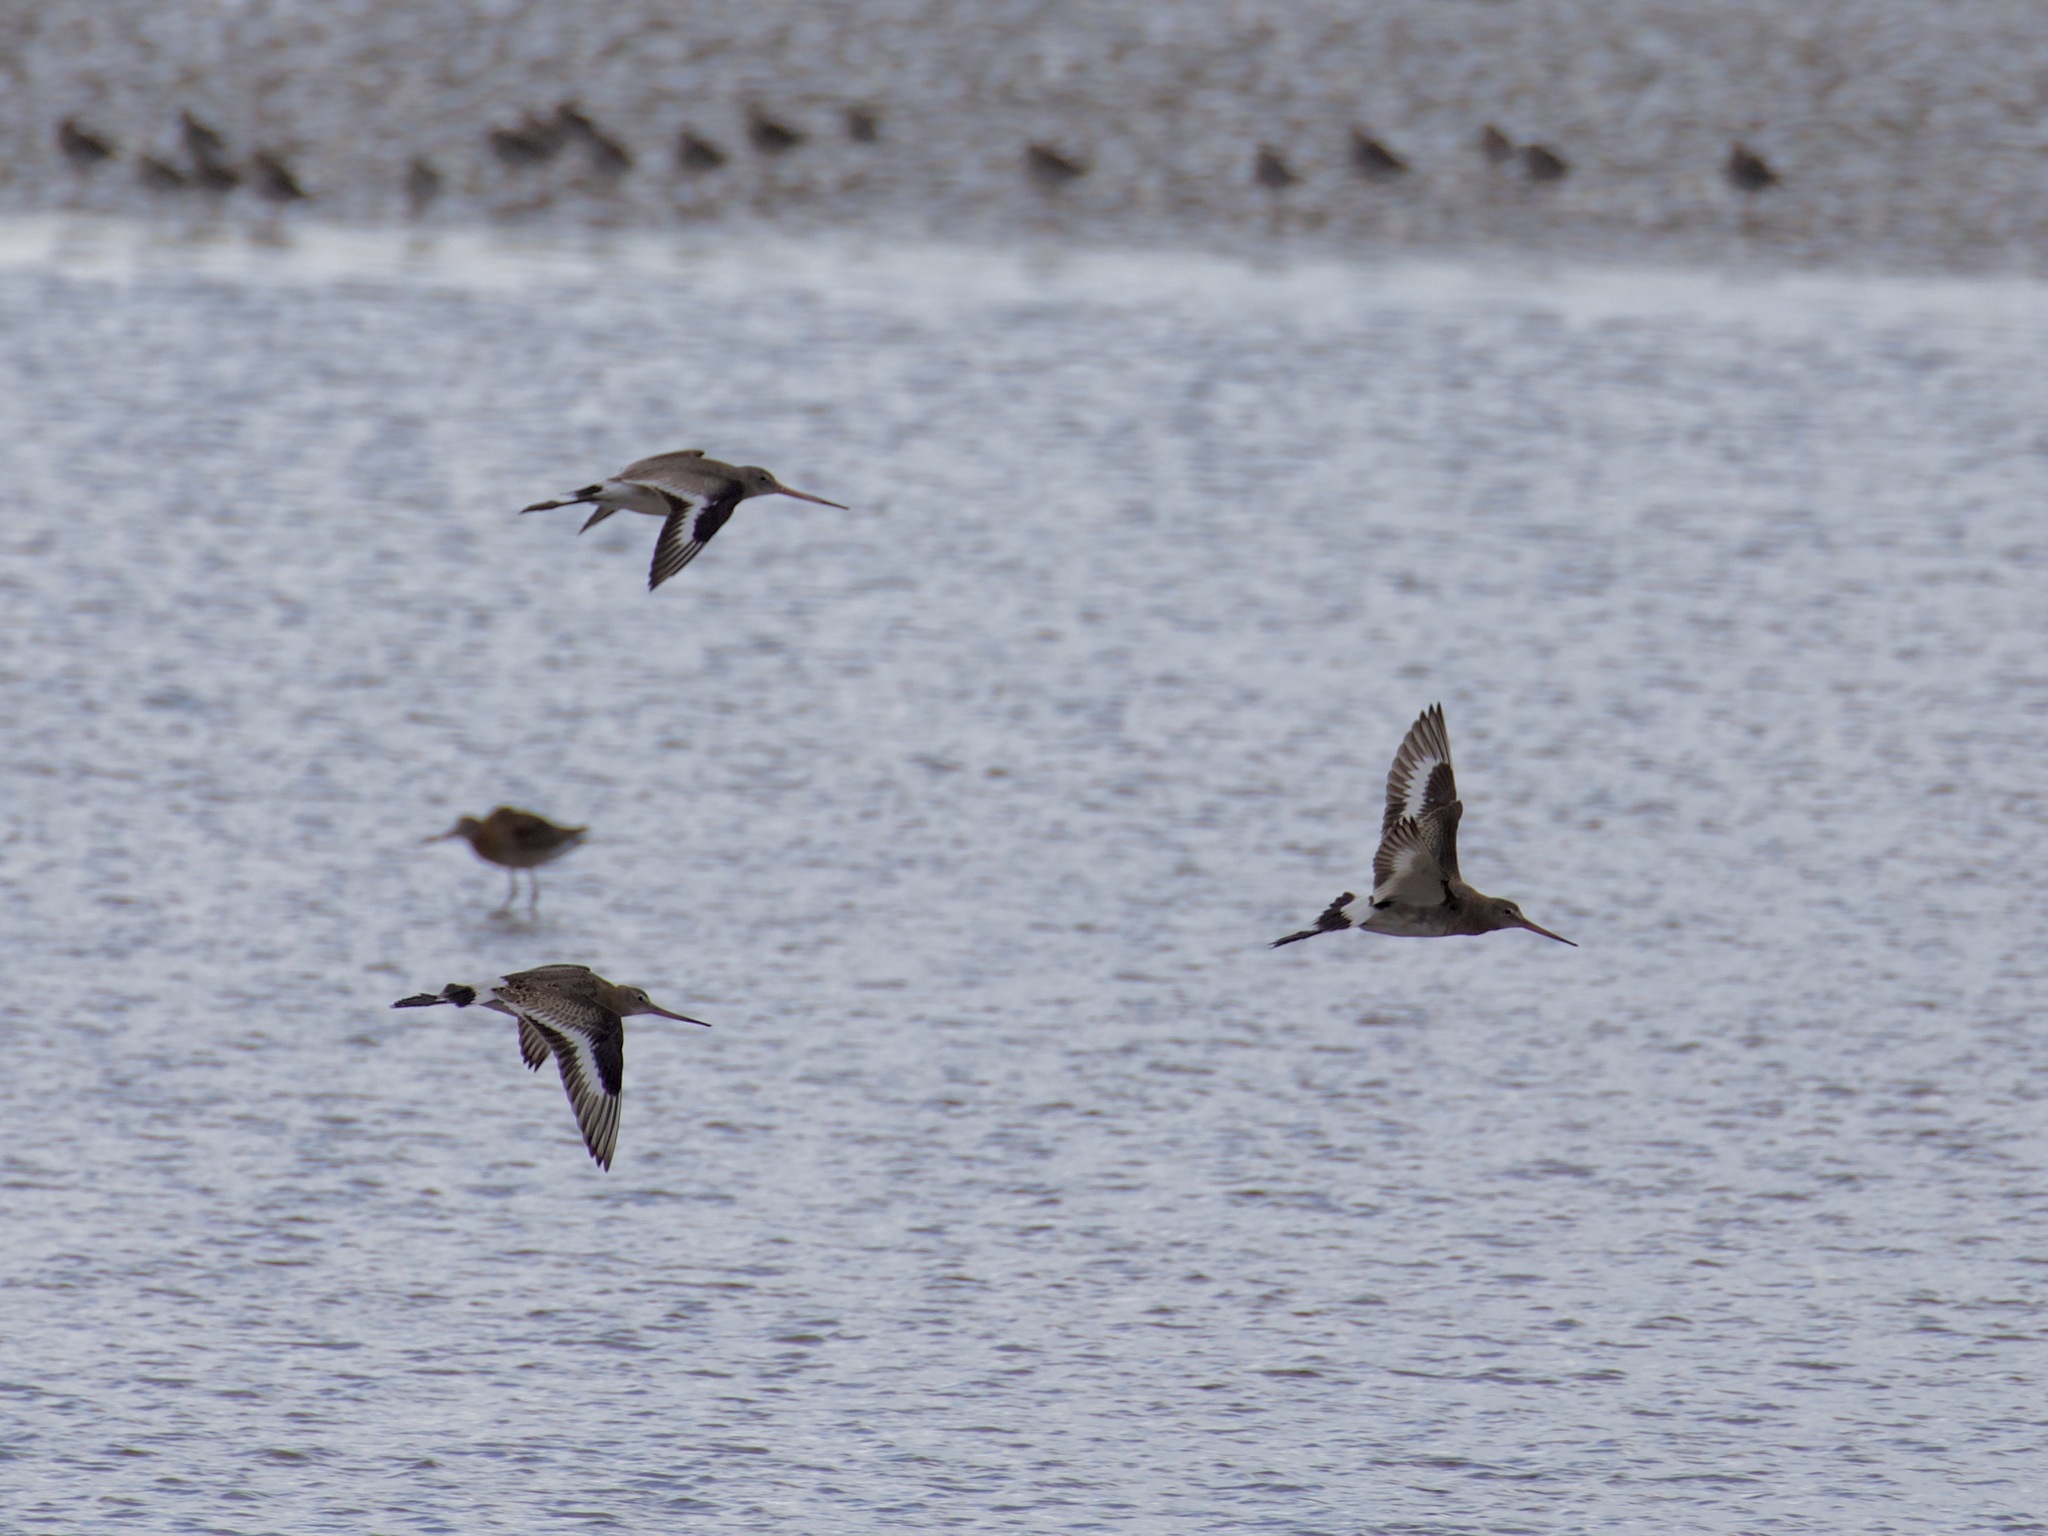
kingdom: Animalia
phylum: Chordata
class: Aves
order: Charadriiformes
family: Scolopacidae
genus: Limosa
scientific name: Limosa limosa
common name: Black-tailed godwit
